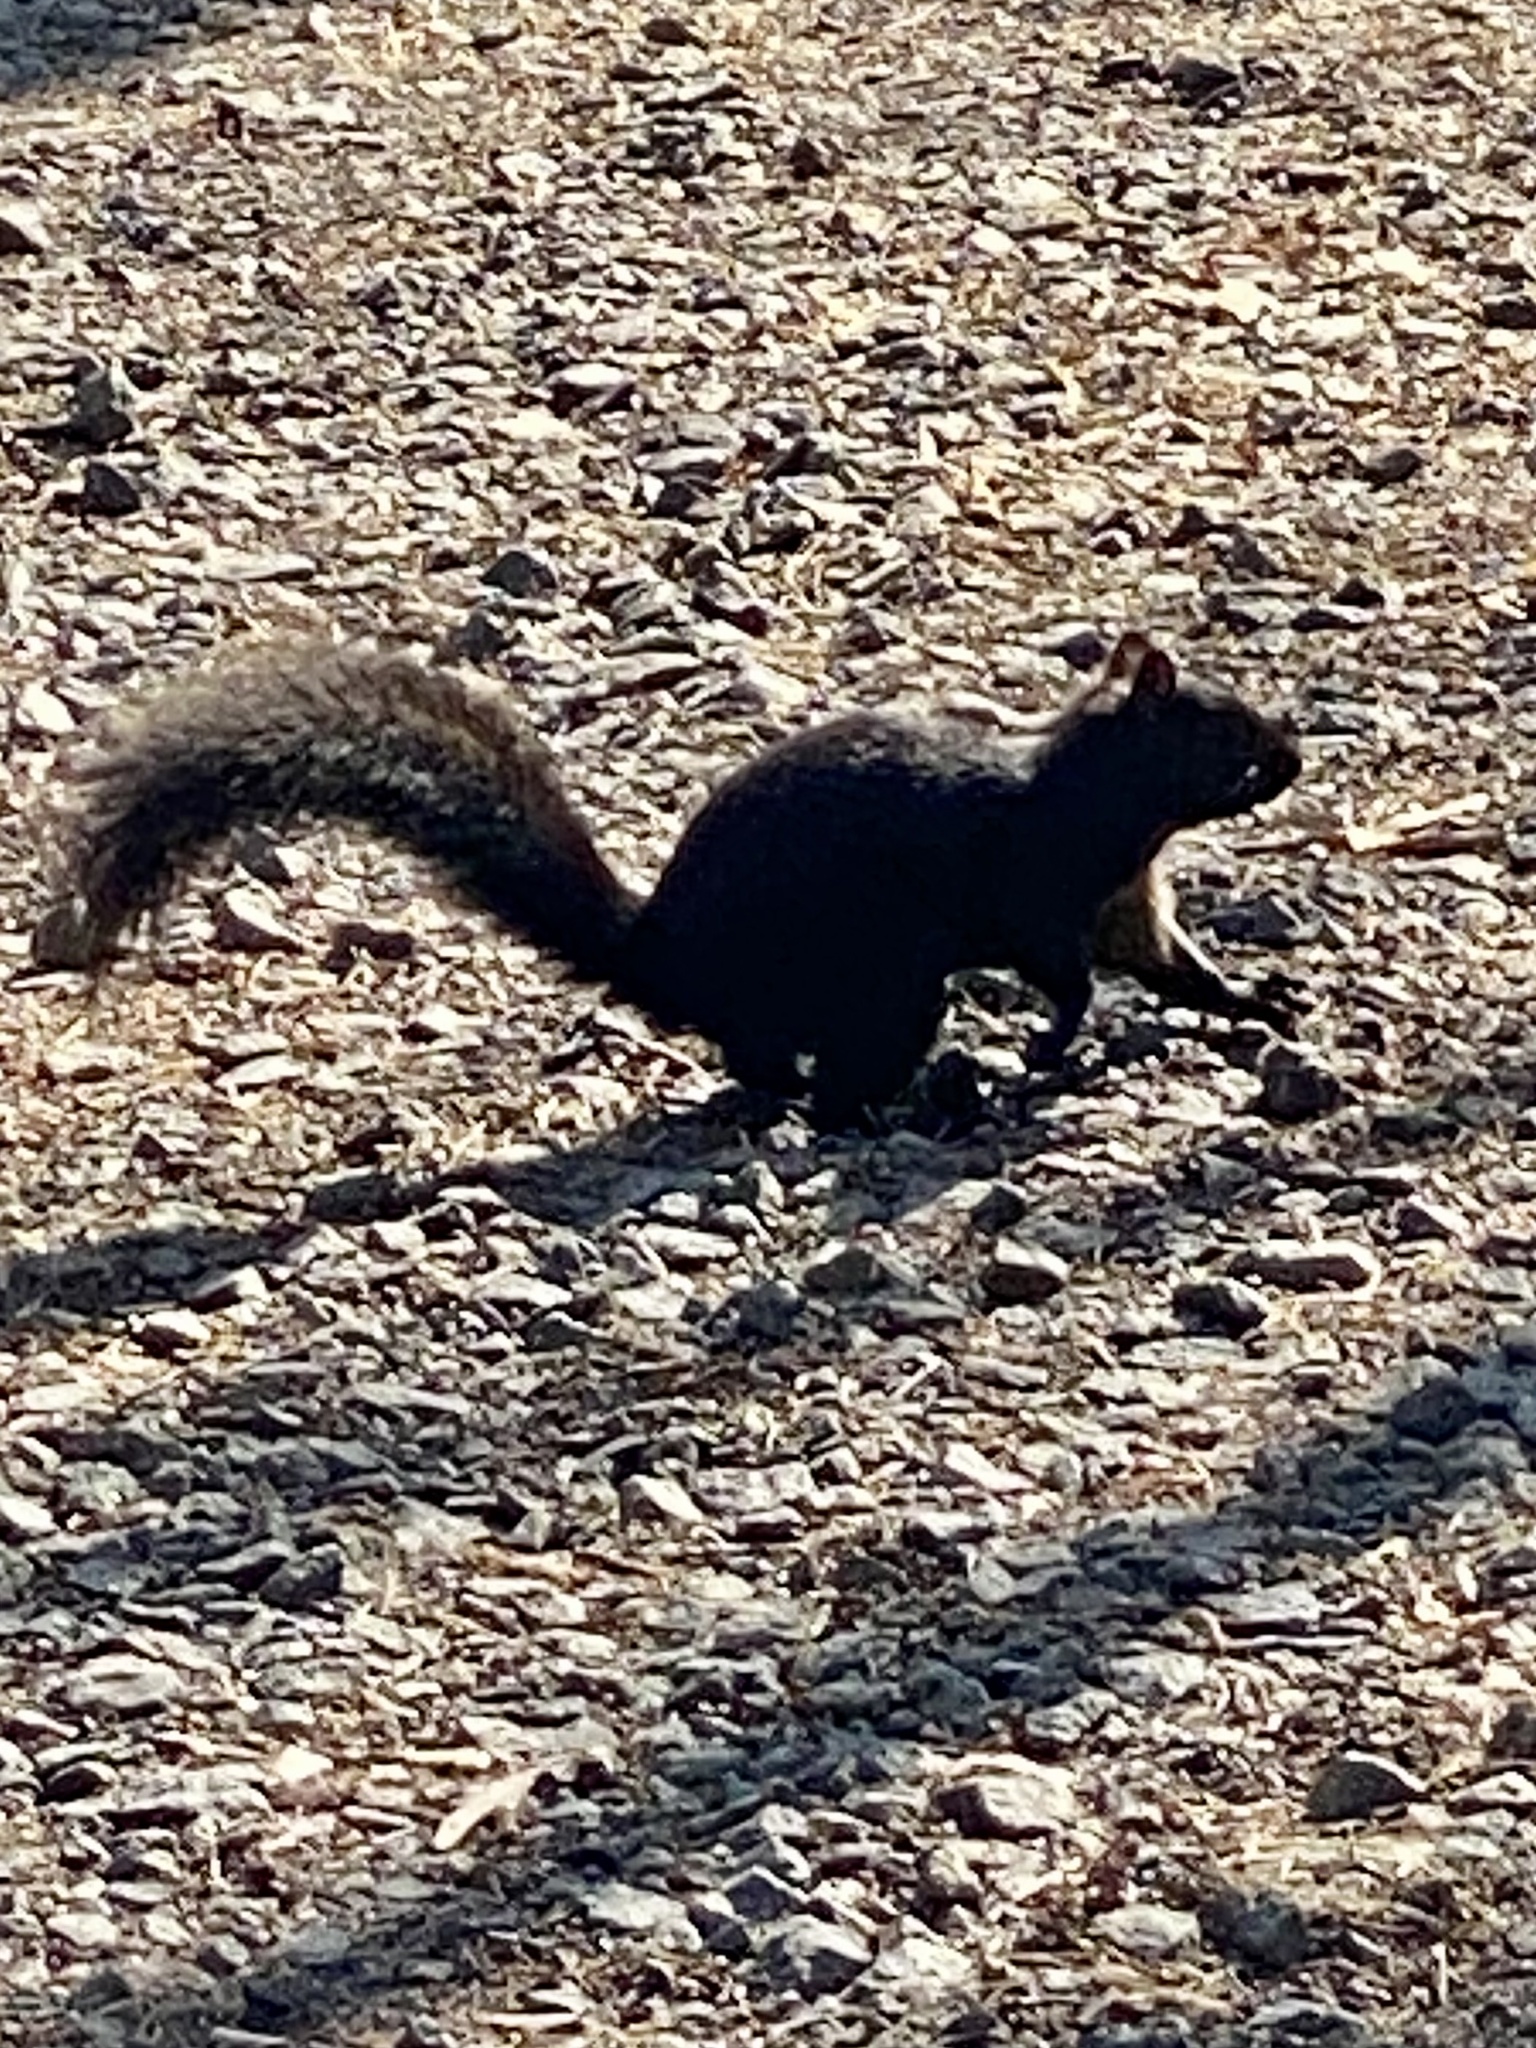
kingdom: Animalia
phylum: Chordata
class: Mammalia
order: Rodentia
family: Sciuridae
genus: Sciurus
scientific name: Sciurus carolinensis
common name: Eastern gray squirrel
